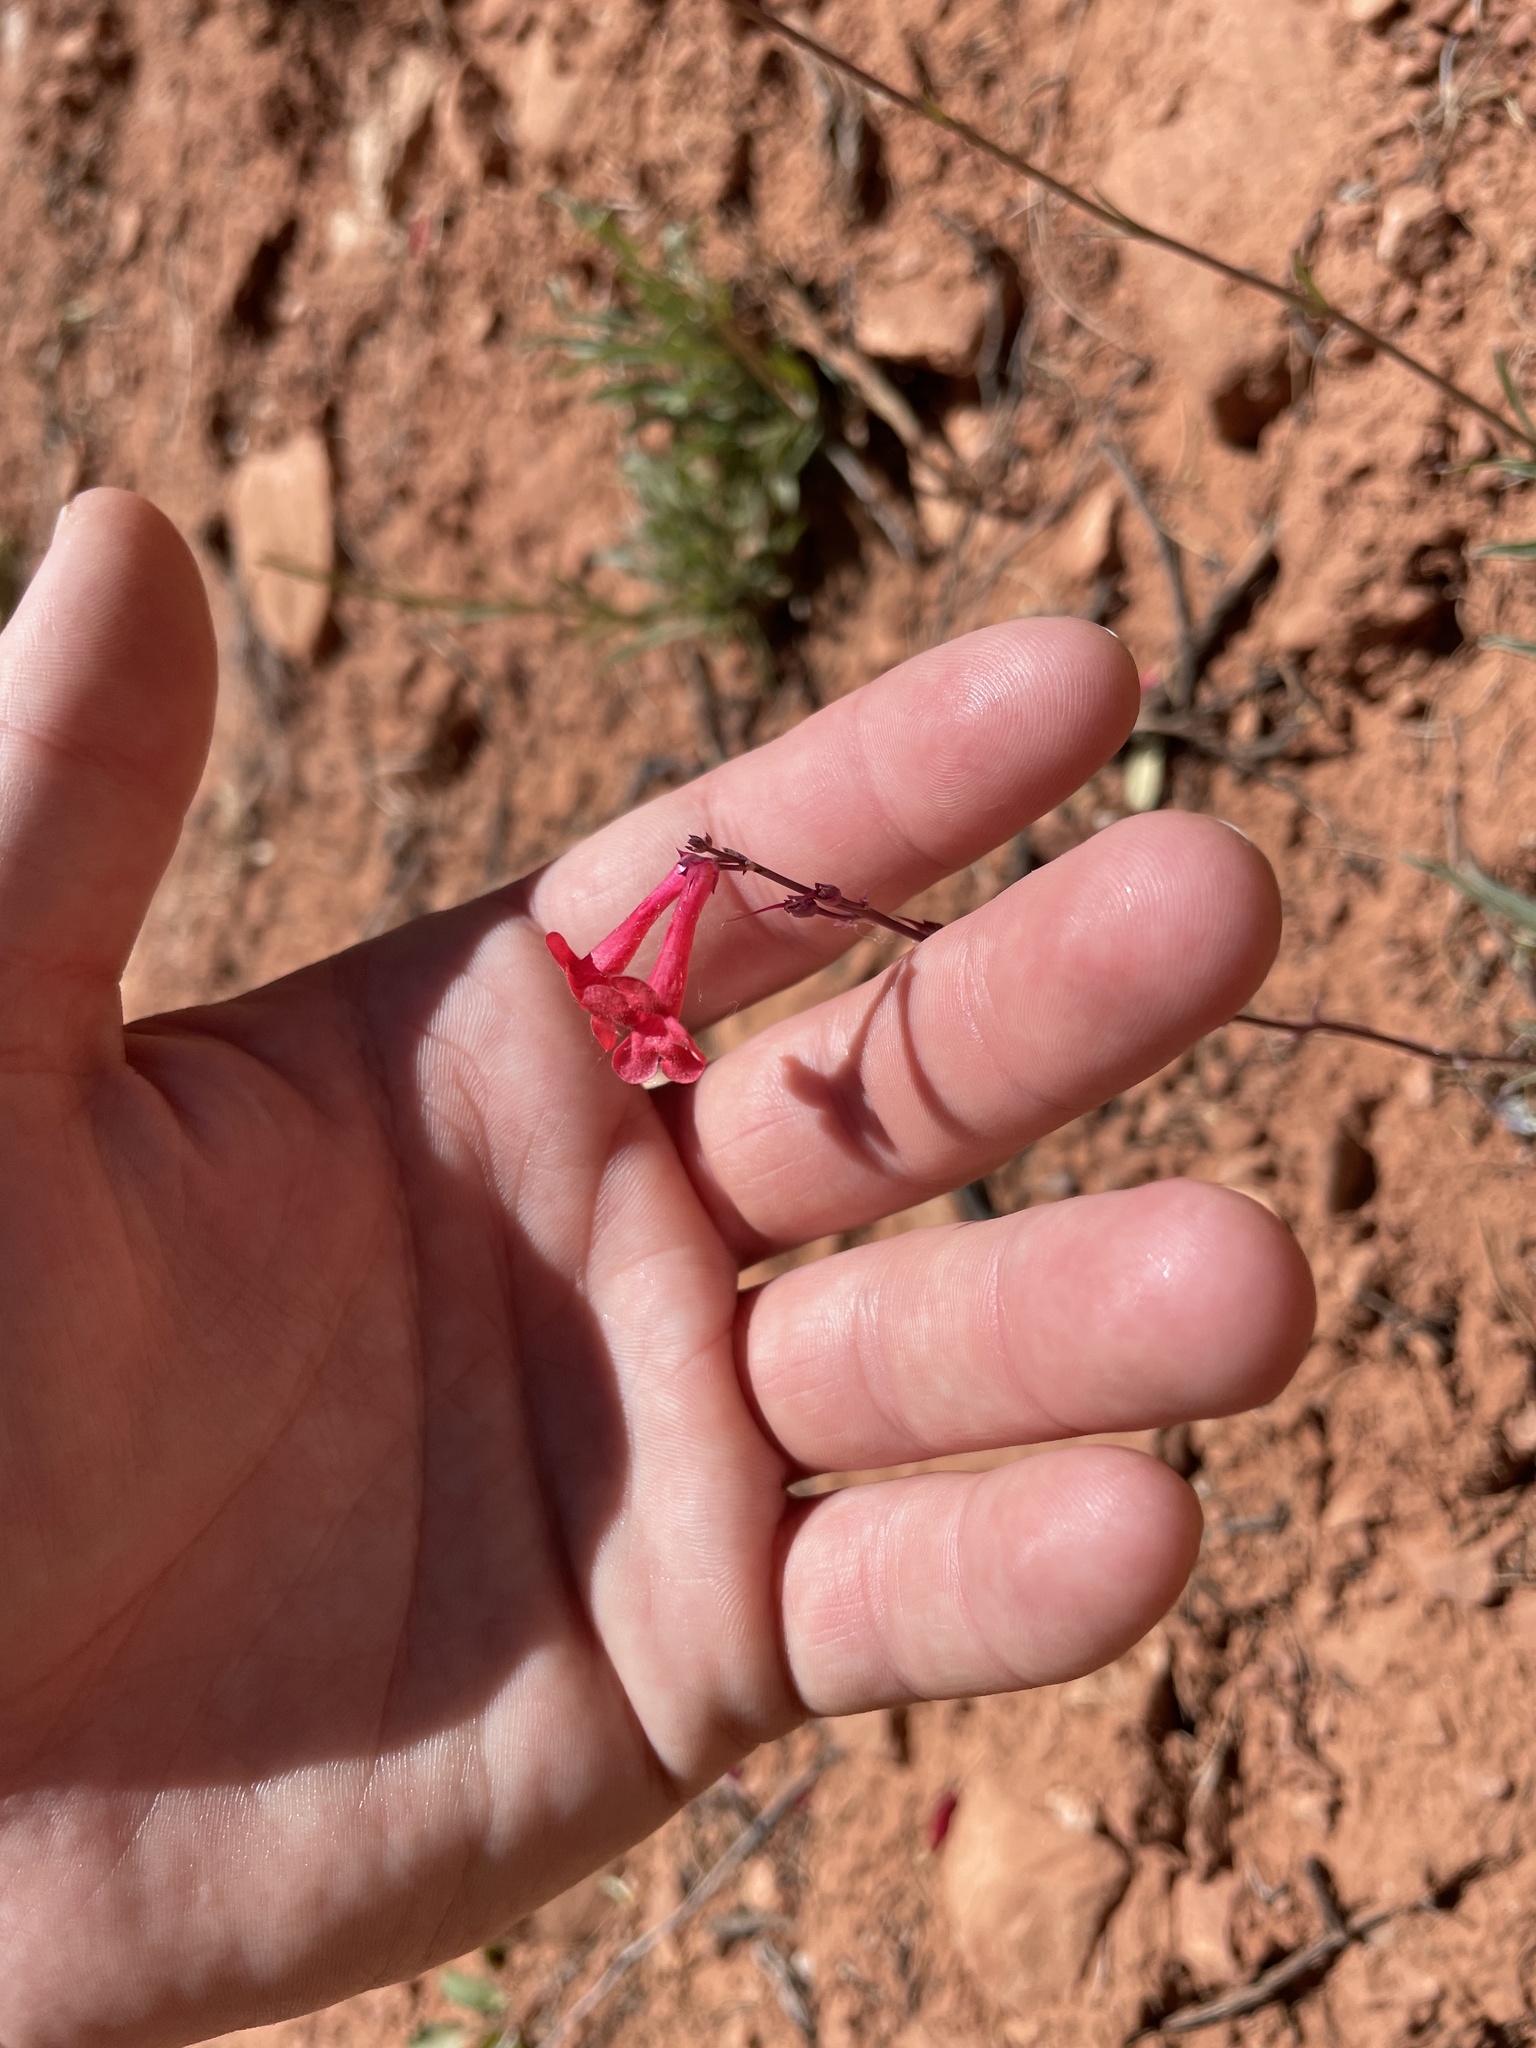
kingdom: Plantae
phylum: Tracheophyta
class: Magnoliopsida
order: Lamiales
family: Plantaginaceae
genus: Penstemon
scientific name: Penstemon utahensis
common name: Utah penstemon
